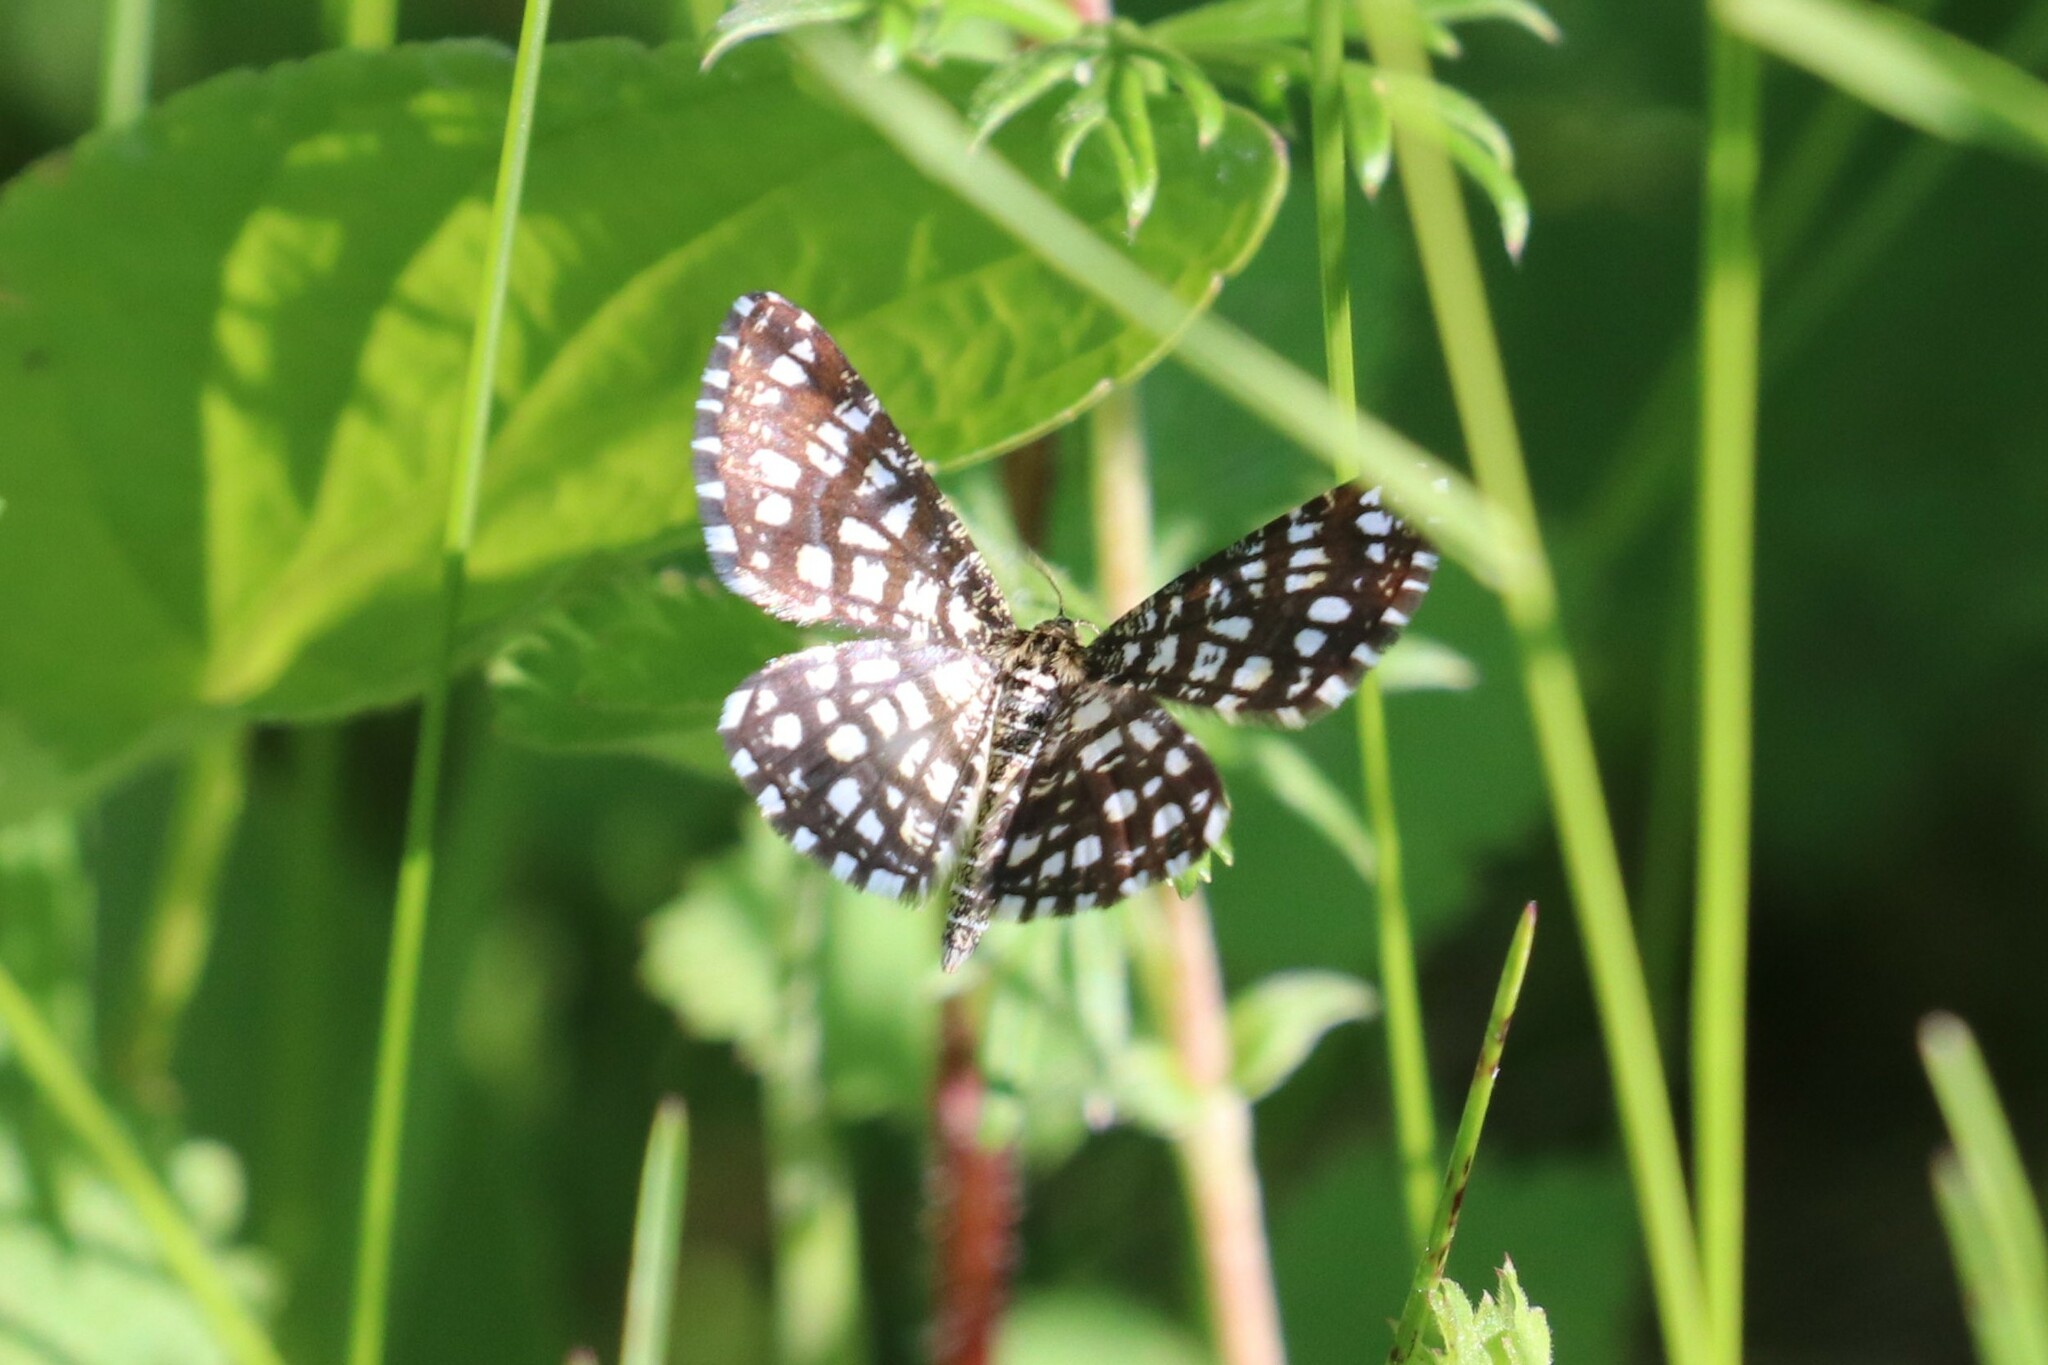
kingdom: Animalia
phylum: Arthropoda
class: Insecta
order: Lepidoptera
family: Geometridae
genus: Chiasmia
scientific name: Chiasmia clathrata
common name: Latticed heath
